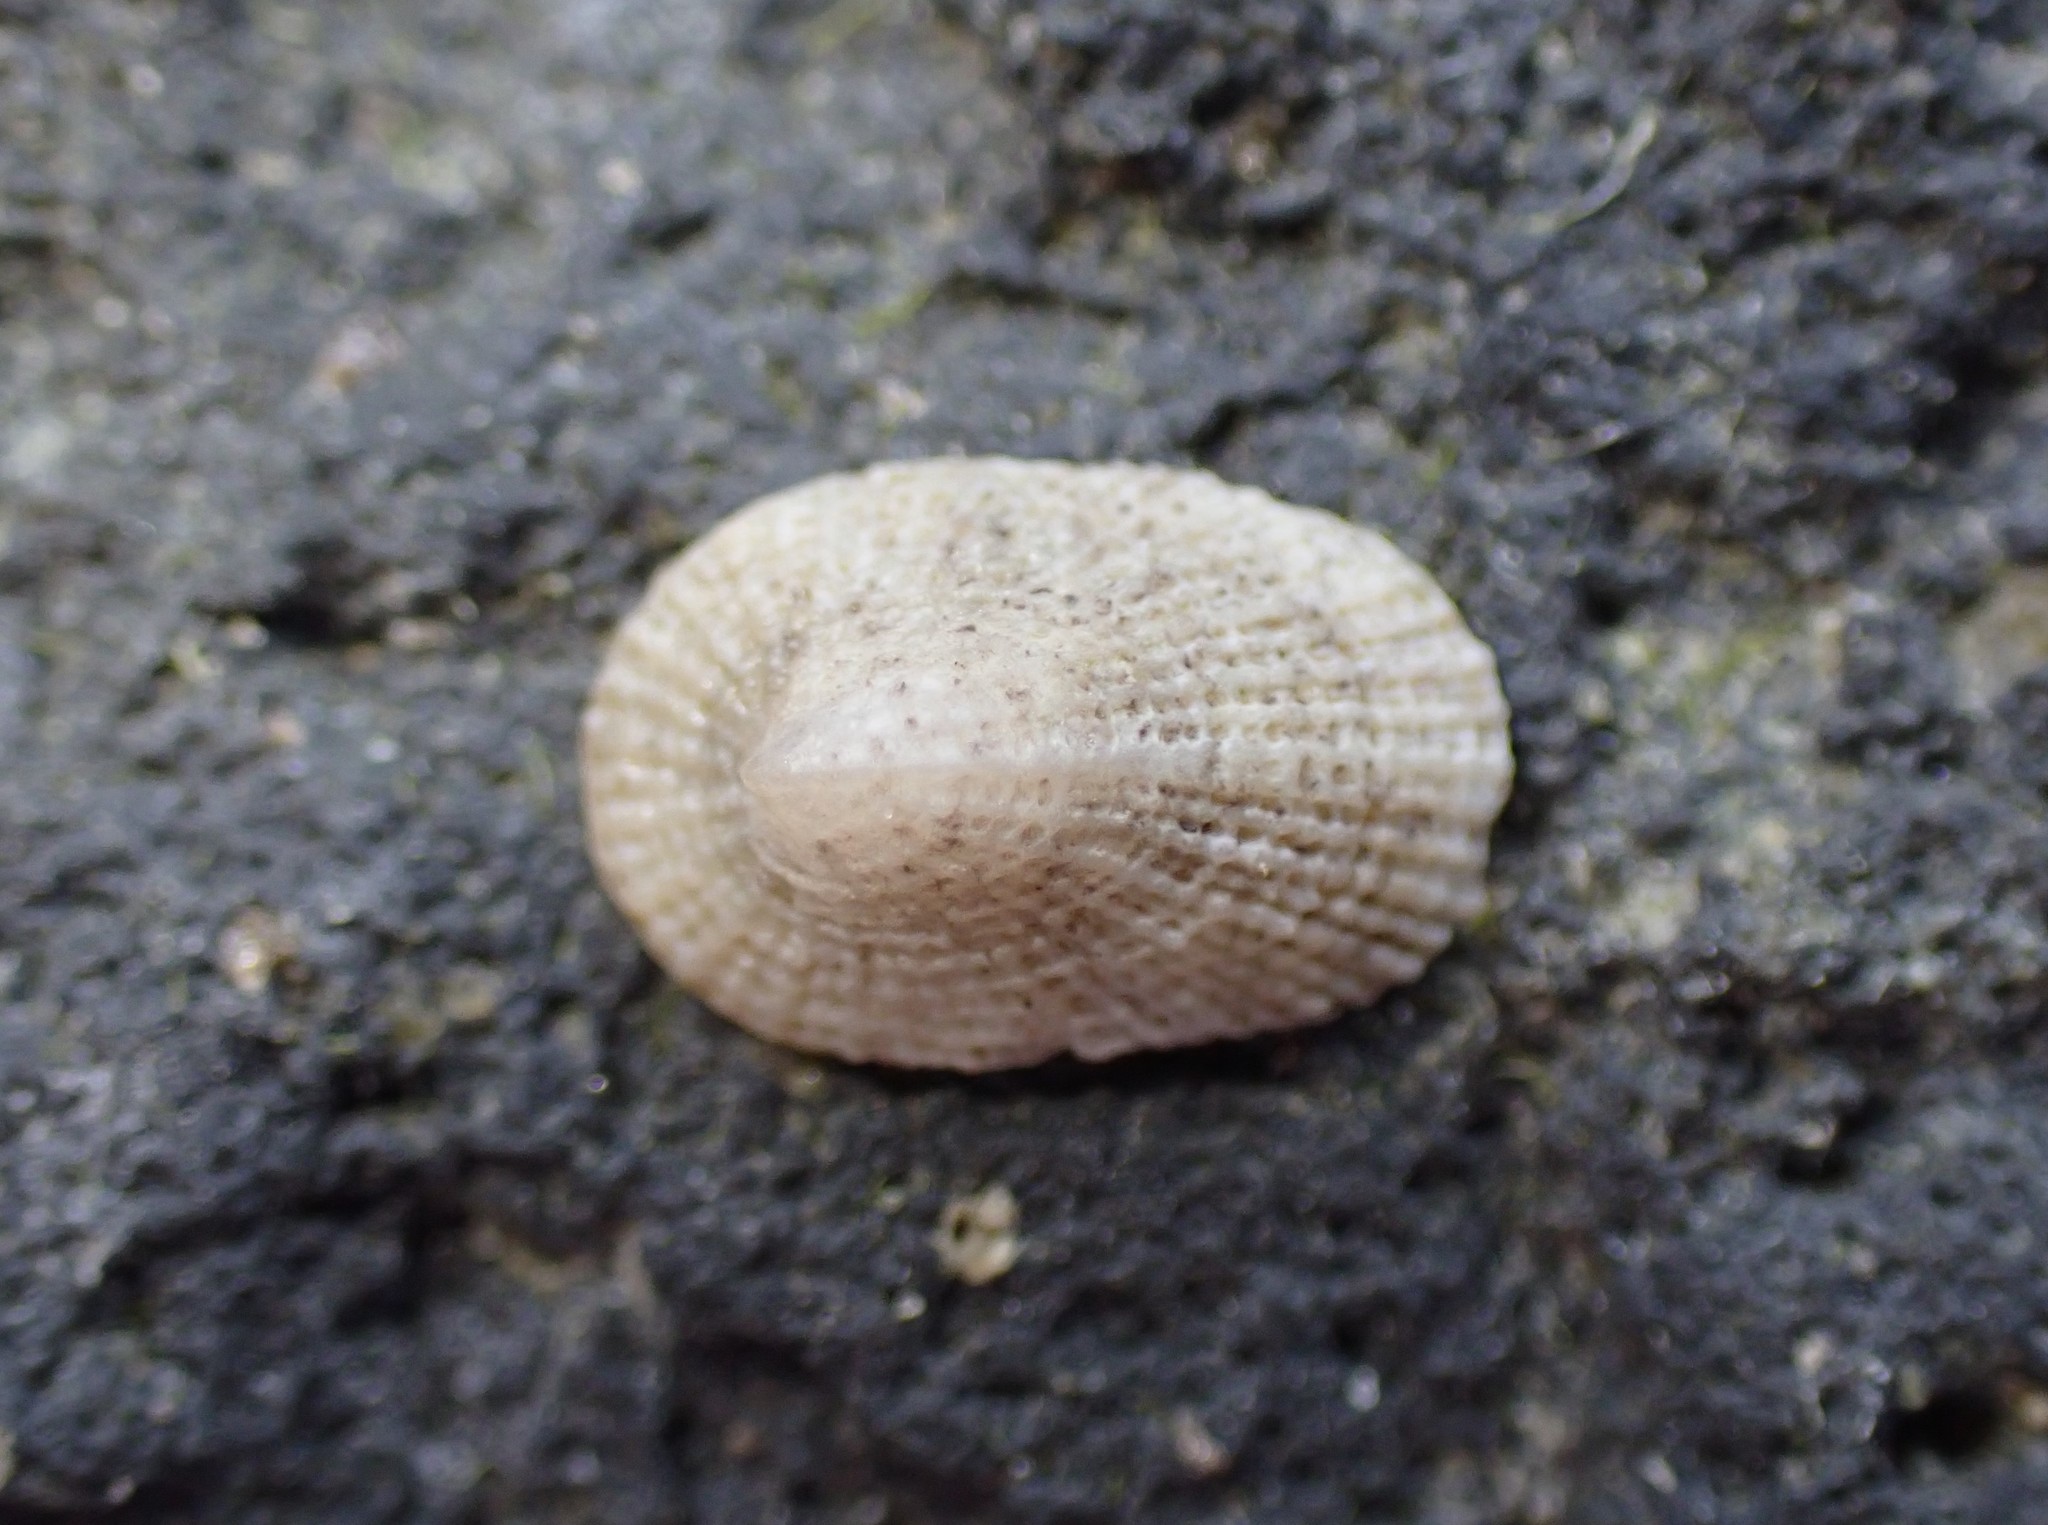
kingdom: Animalia
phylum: Mollusca
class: Gastropoda
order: Lepetellida
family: Fissurellidae
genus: Tugali
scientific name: Tugali suteri
